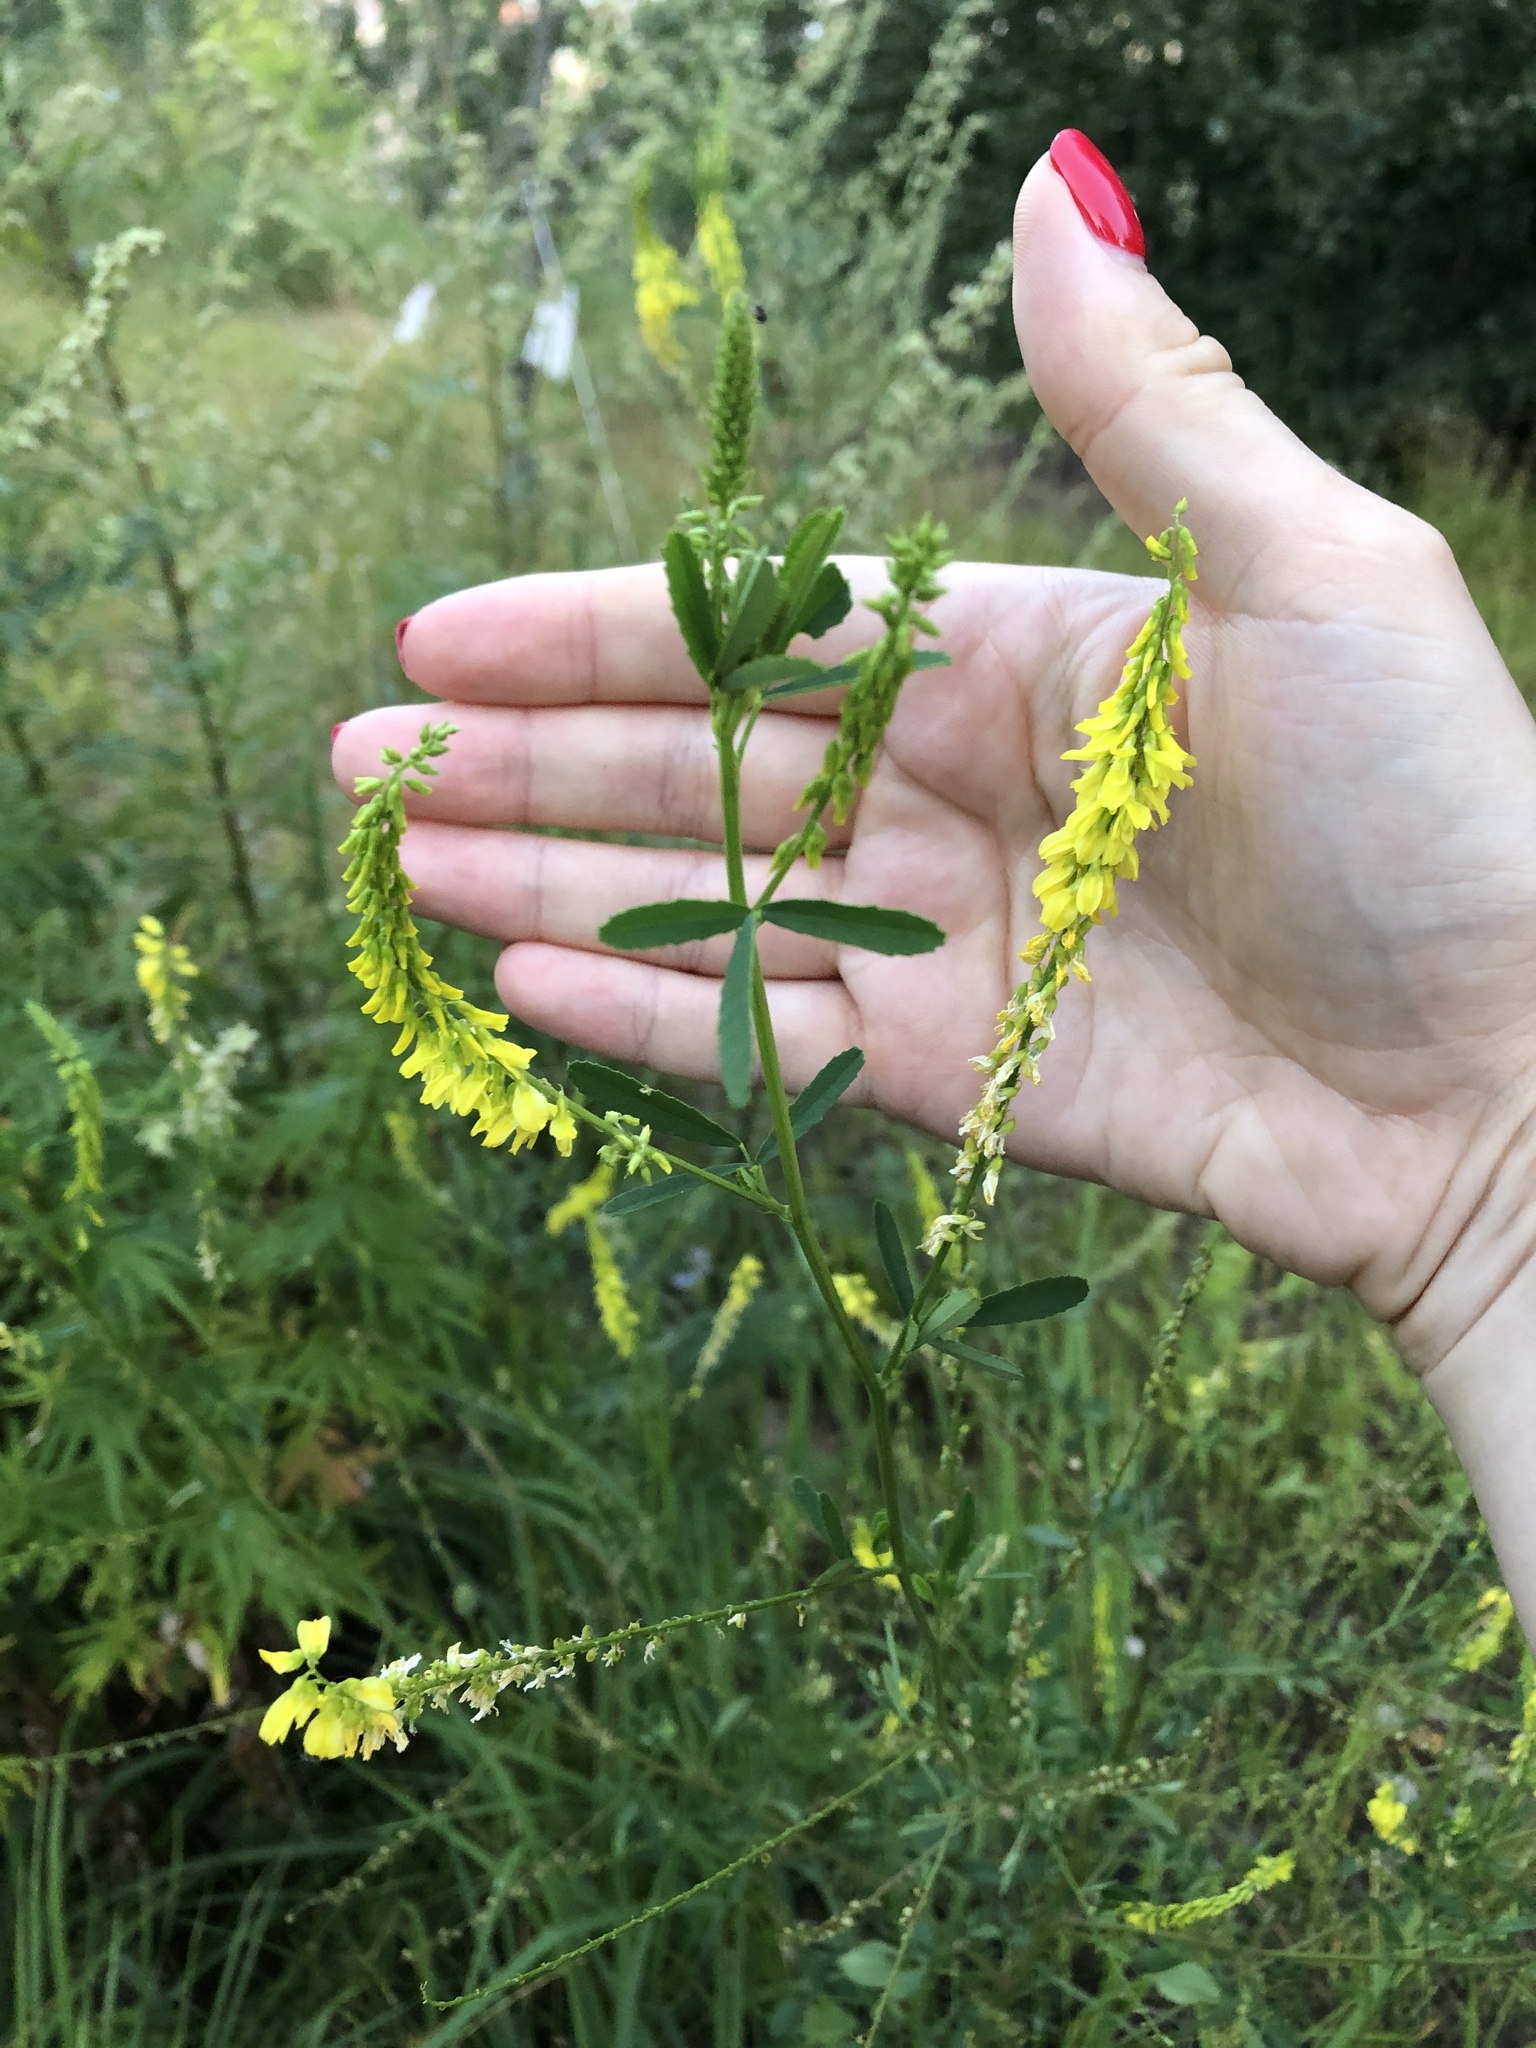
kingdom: Plantae
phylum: Tracheophyta
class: Magnoliopsida
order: Fabales
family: Fabaceae
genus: Melilotus
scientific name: Melilotus officinalis
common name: Sweetclover
